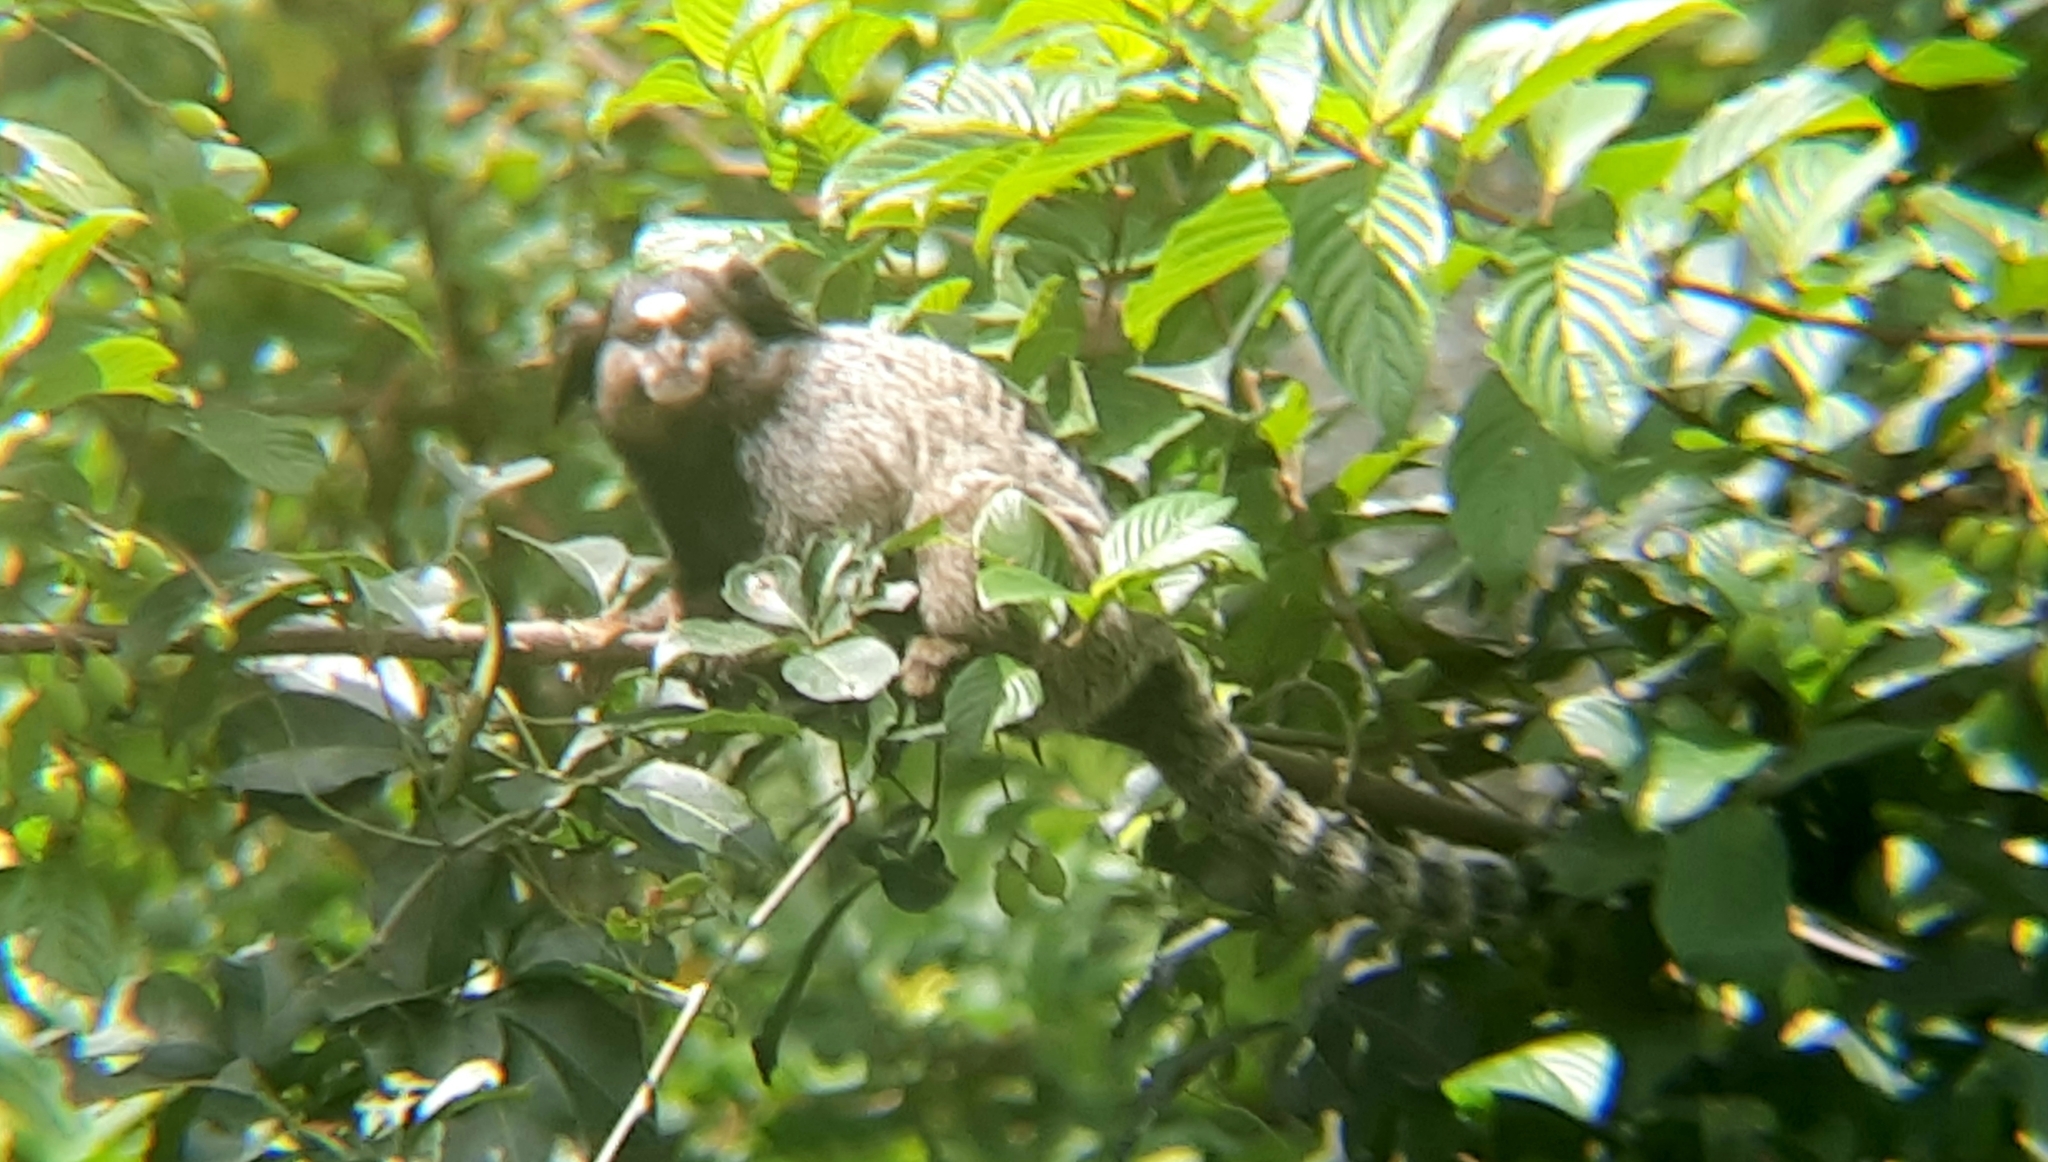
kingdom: Animalia
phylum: Chordata
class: Mammalia
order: Primates
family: Callitrichidae
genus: Callithrix
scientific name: Callithrix penicillata
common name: Black-tufted marmoset
